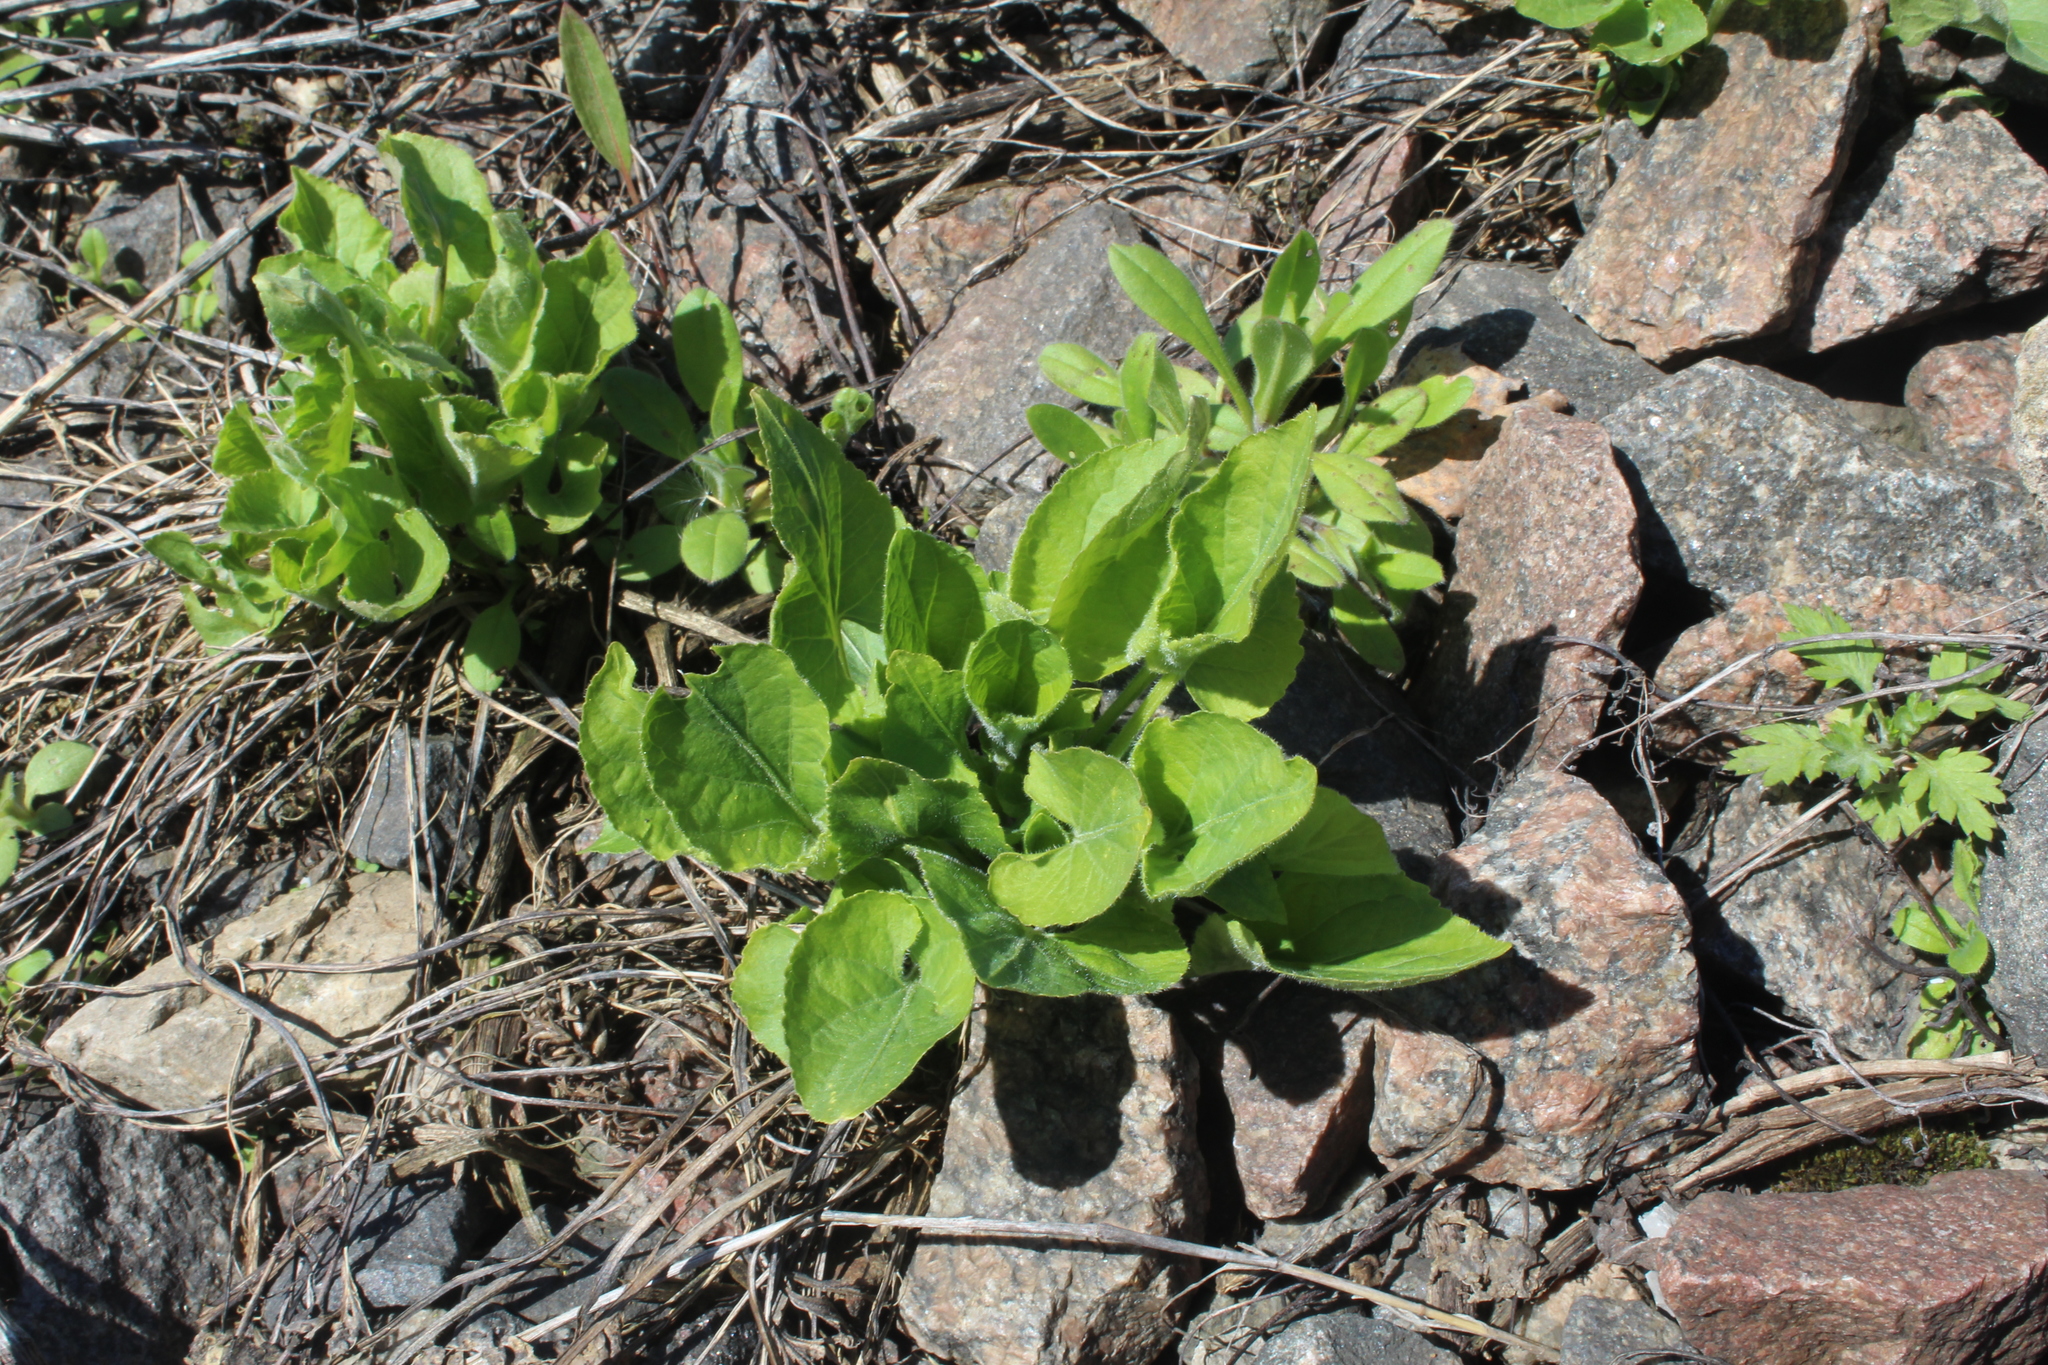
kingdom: Plantae
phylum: Tracheophyta
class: Magnoliopsida
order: Malpighiales
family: Violaceae
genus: Viola
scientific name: Viola hirta
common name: Hairy violet
